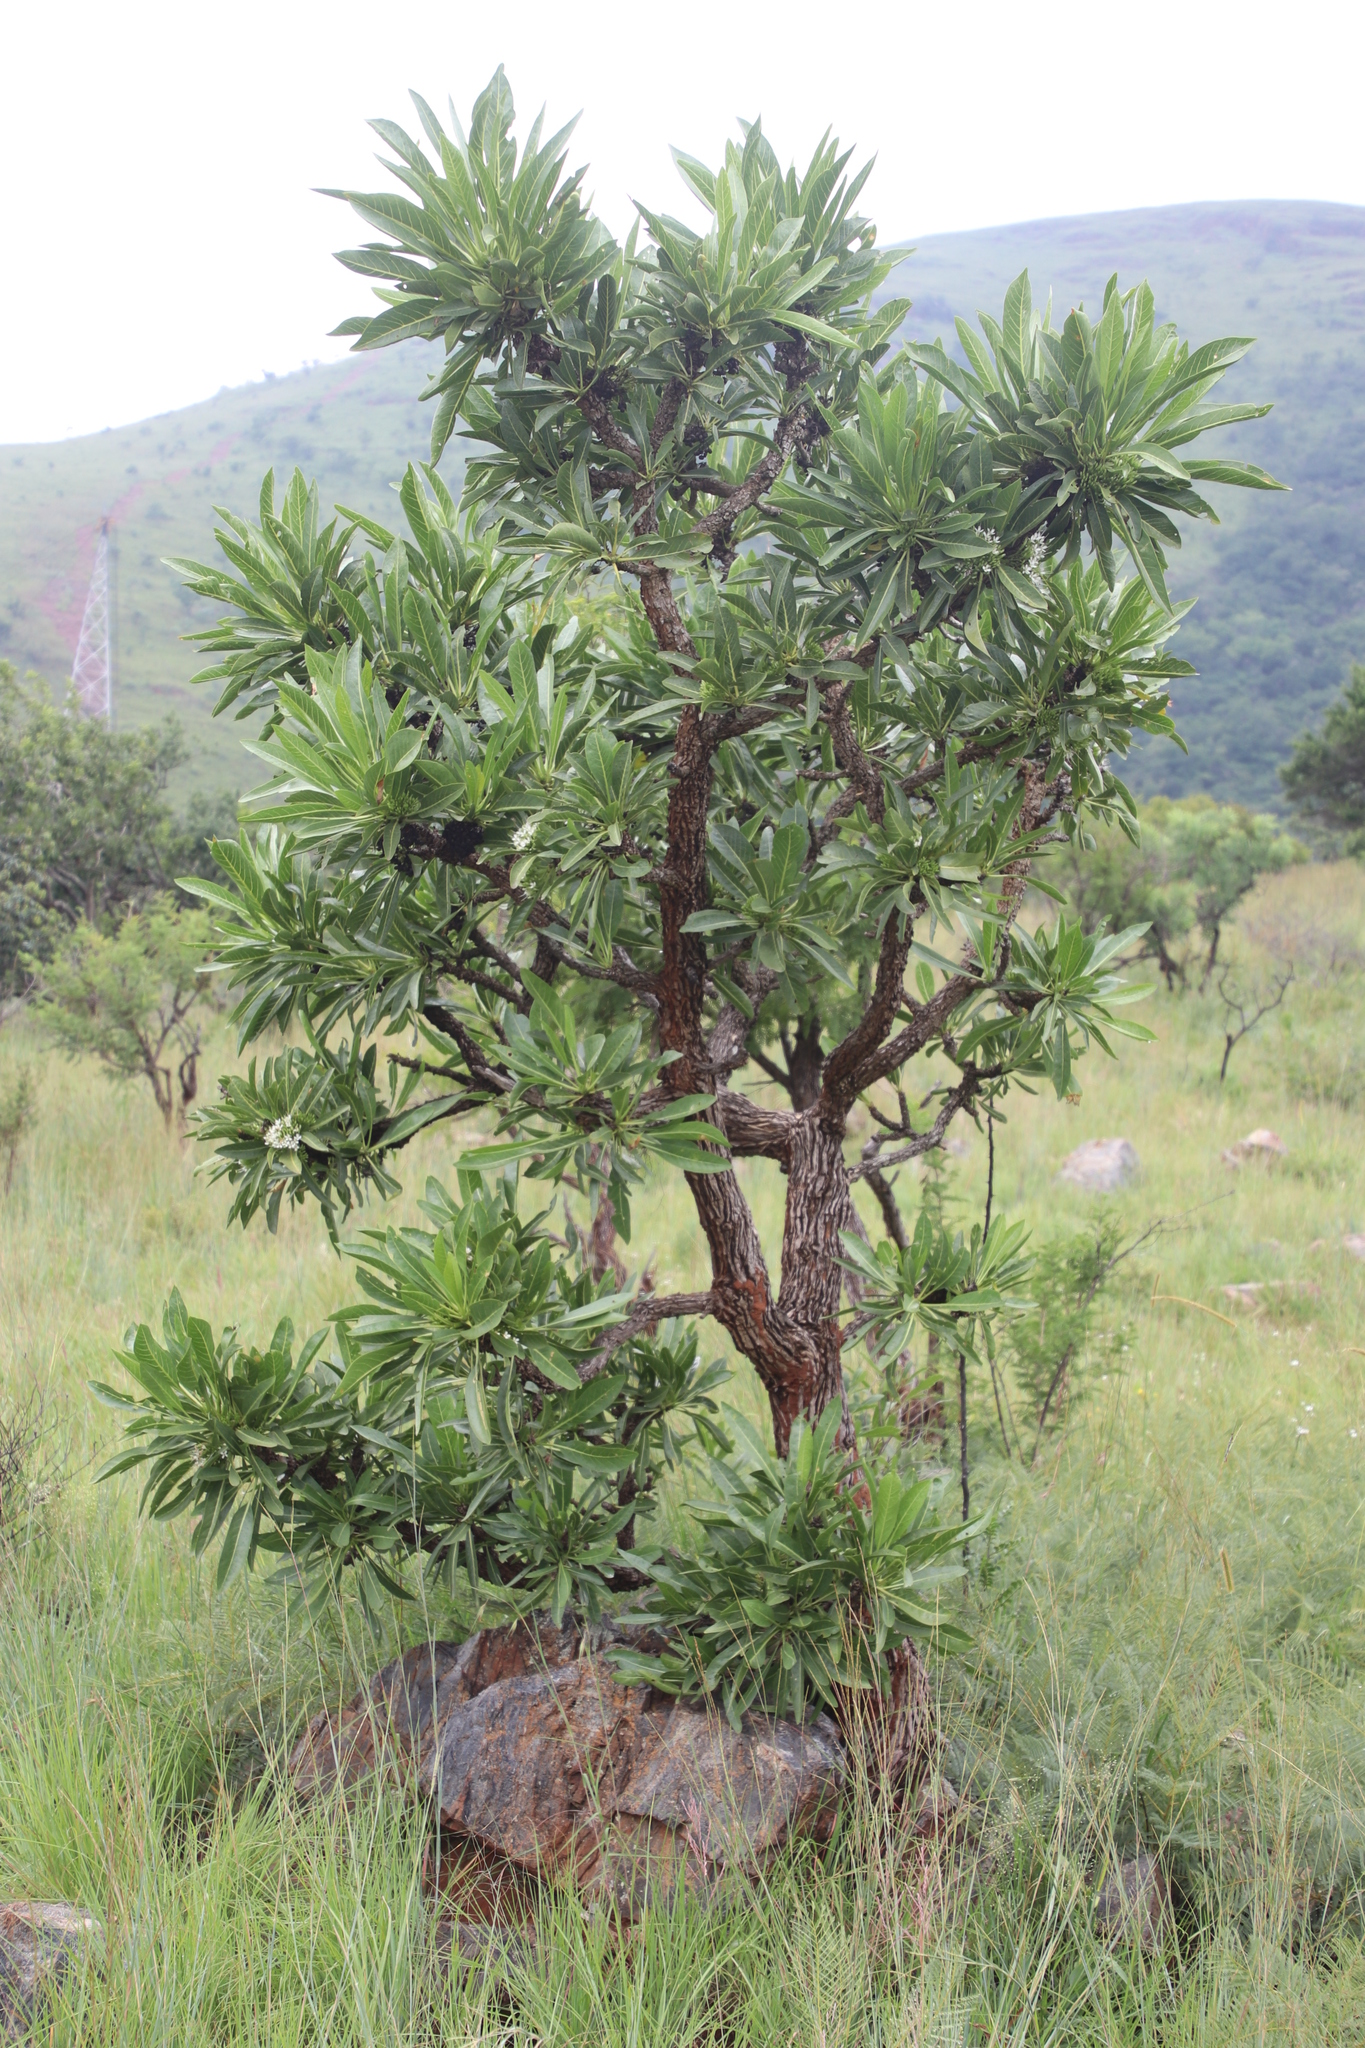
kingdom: Plantae
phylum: Tracheophyta
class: Magnoliopsida
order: Gentianales
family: Rubiaceae
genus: Pavetta
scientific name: Pavetta edentula
